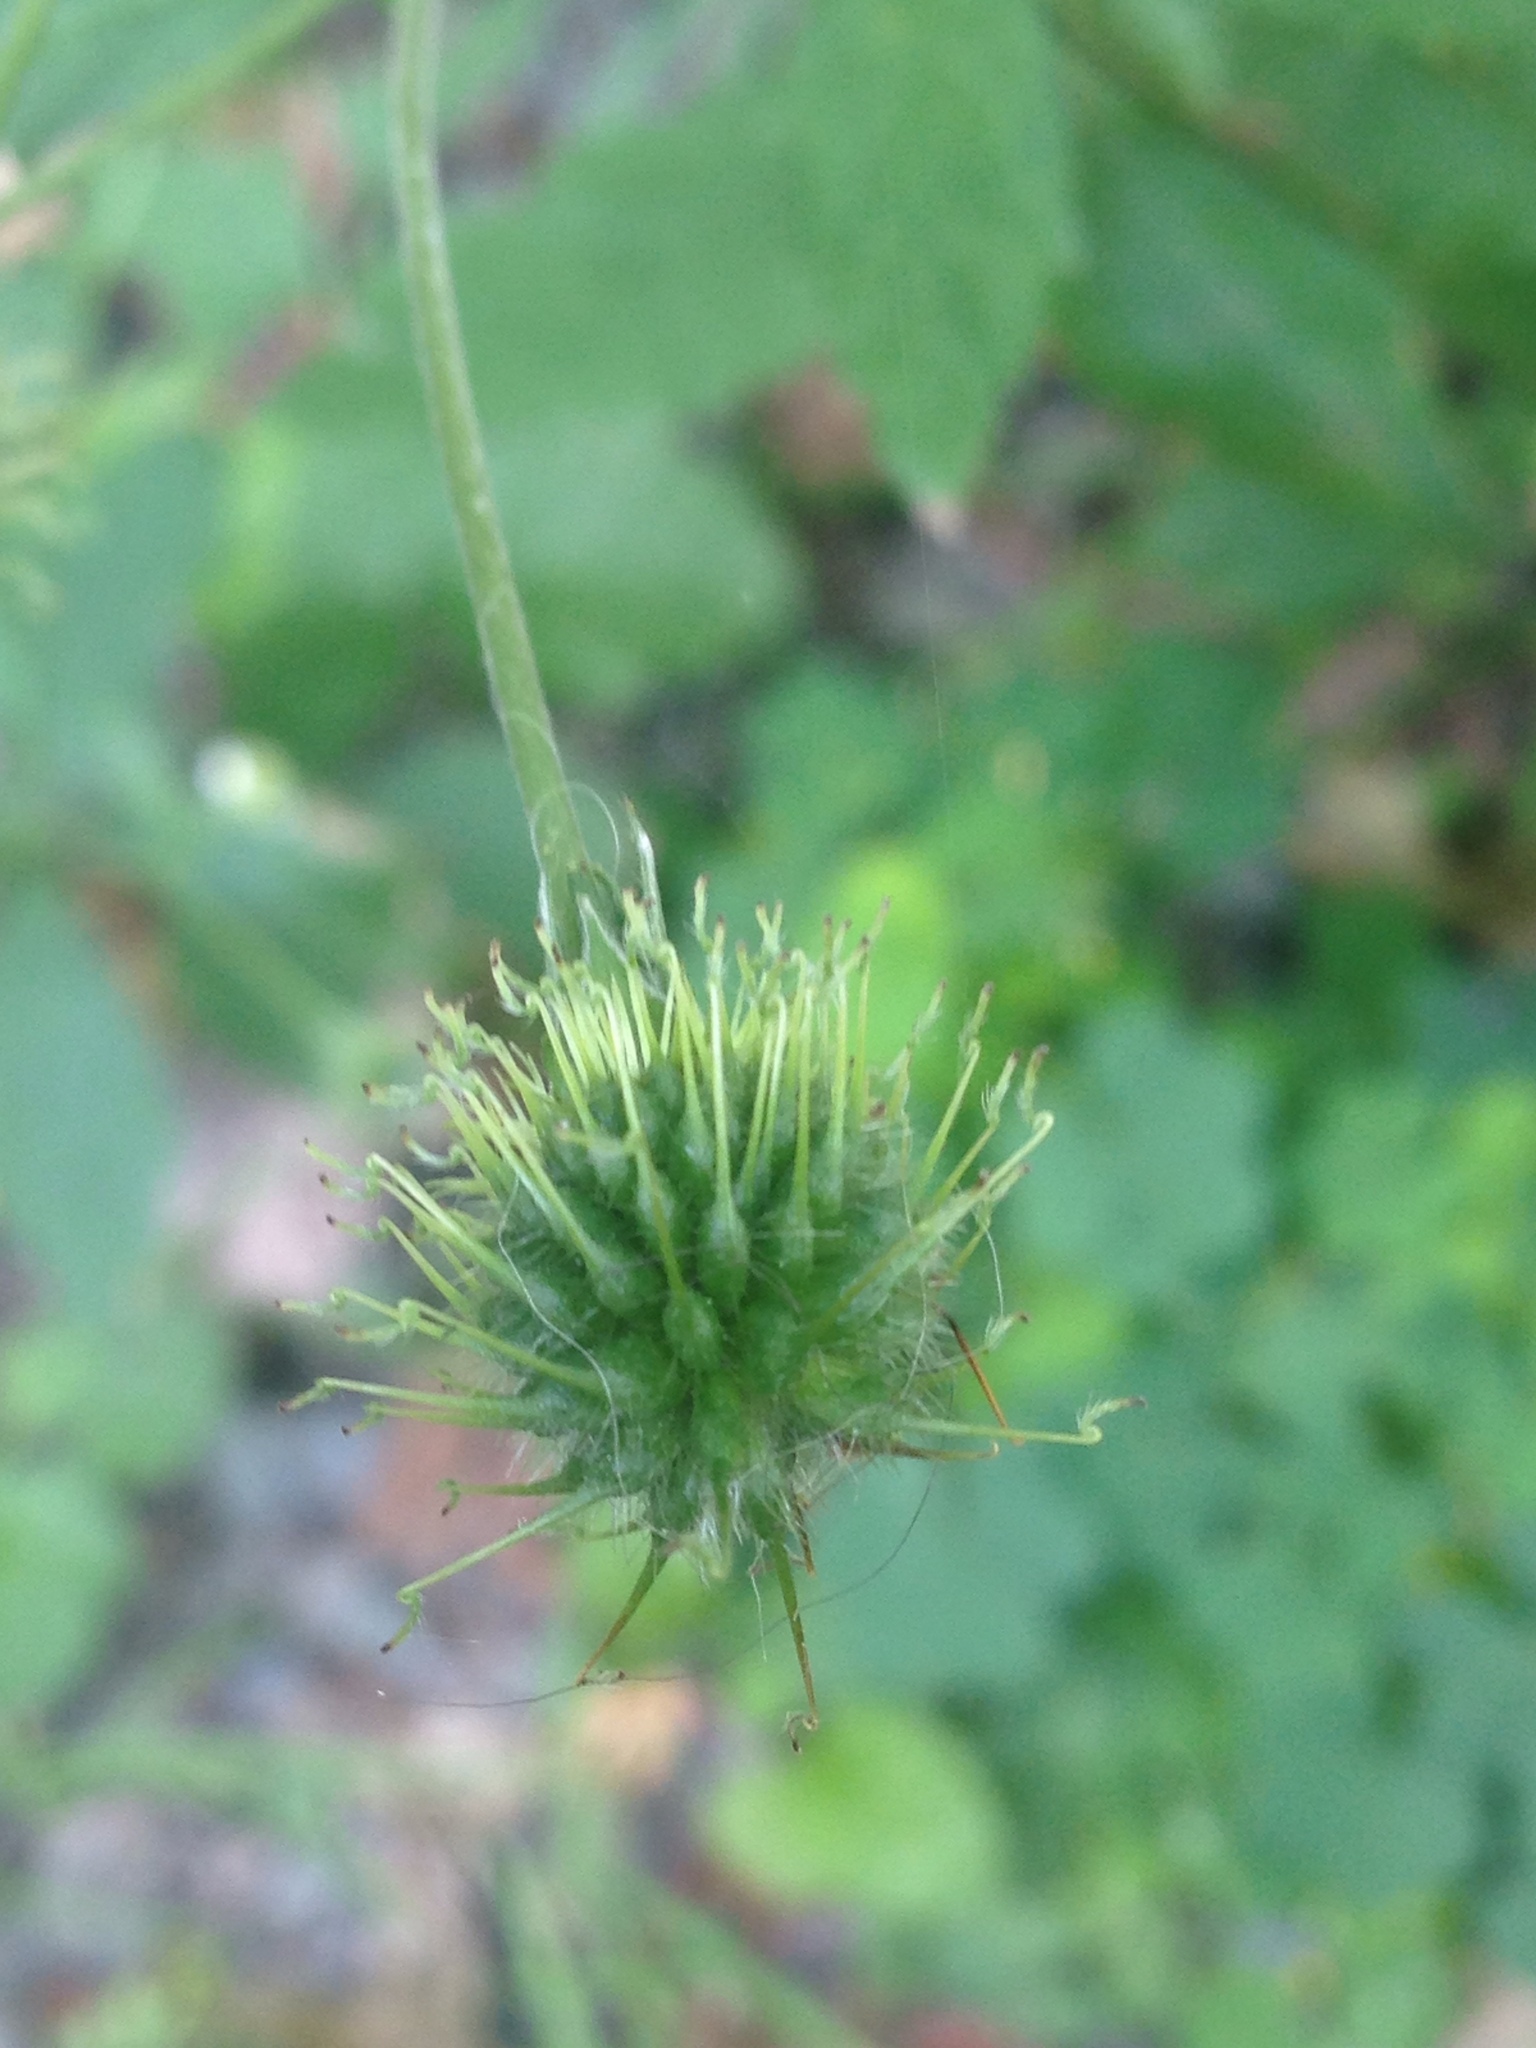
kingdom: Plantae
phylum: Tracheophyta
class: Magnoliopsida
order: Rosales
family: Rosaceae
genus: Geum
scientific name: Geum canadense
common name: White avens
